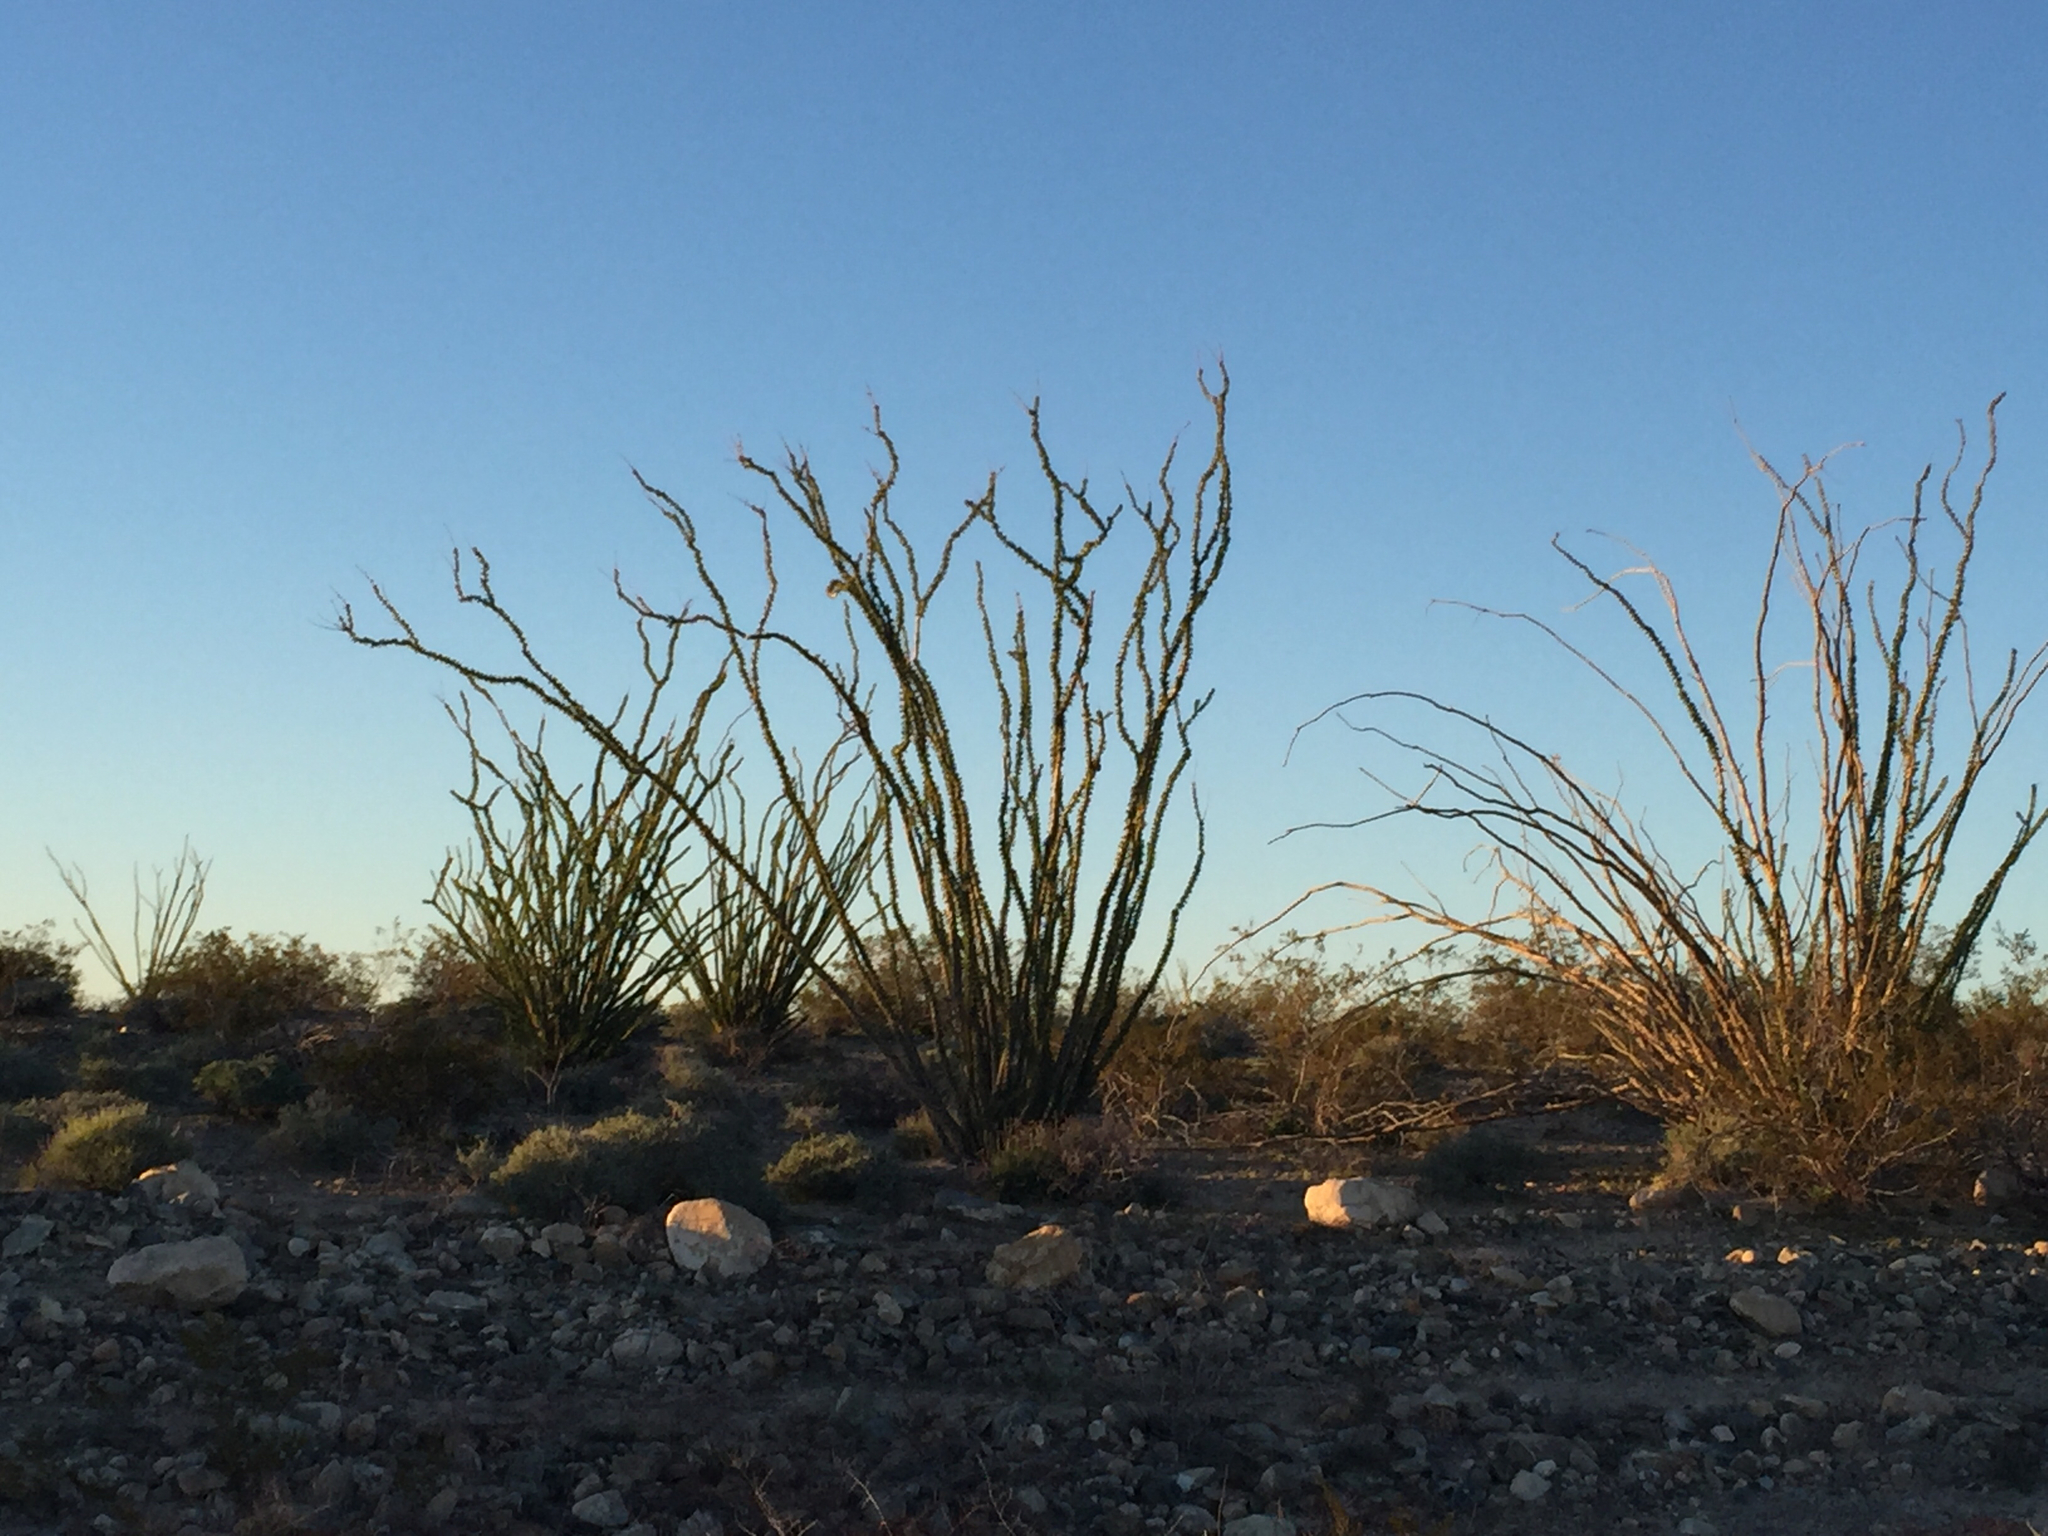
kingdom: Plantae
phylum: Tracheophyta
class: Magnoliopsida
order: Ericales
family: Fouquieriaceae
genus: Fouquieria
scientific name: Fouquieria splendens
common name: Vine-cactus
